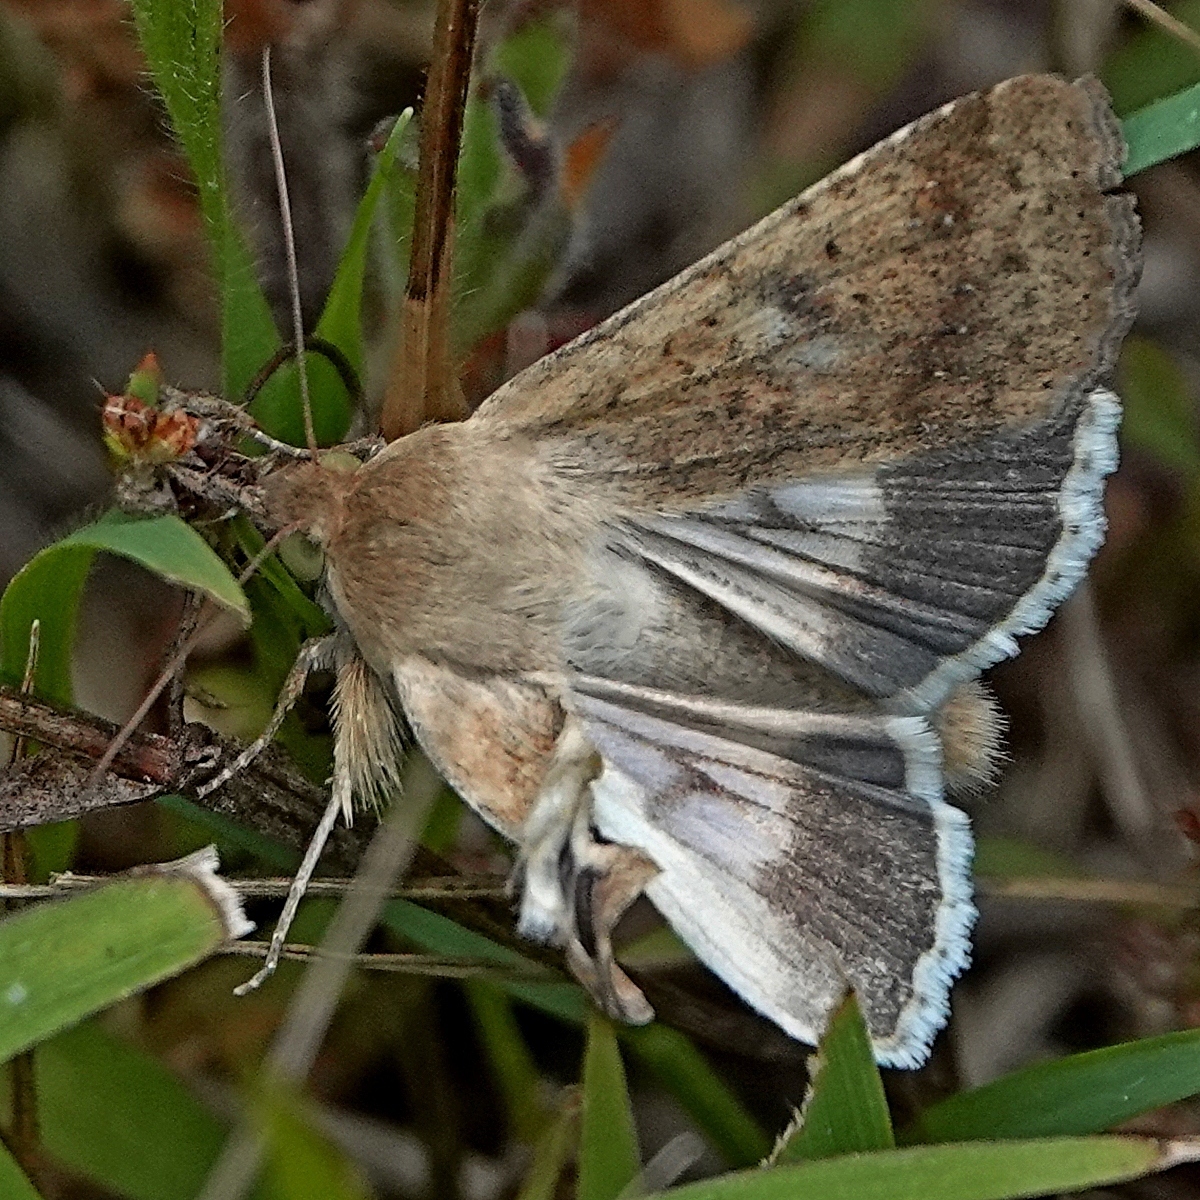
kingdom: Animalia
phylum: Arthropoda
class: Insecta
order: Lepidoptera
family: Noctuidae
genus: Helicoverpa
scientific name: Helicoverpa punctigera
